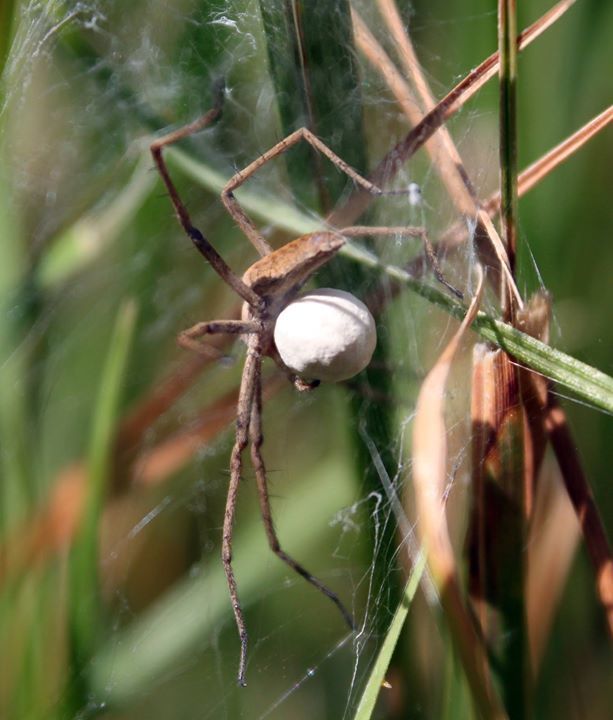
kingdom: Animalia
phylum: Arthropoda
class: Arachnida
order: Araneae
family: Pisauridae
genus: Pisaura
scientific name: Pisaura mirabilis
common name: Tent spider
